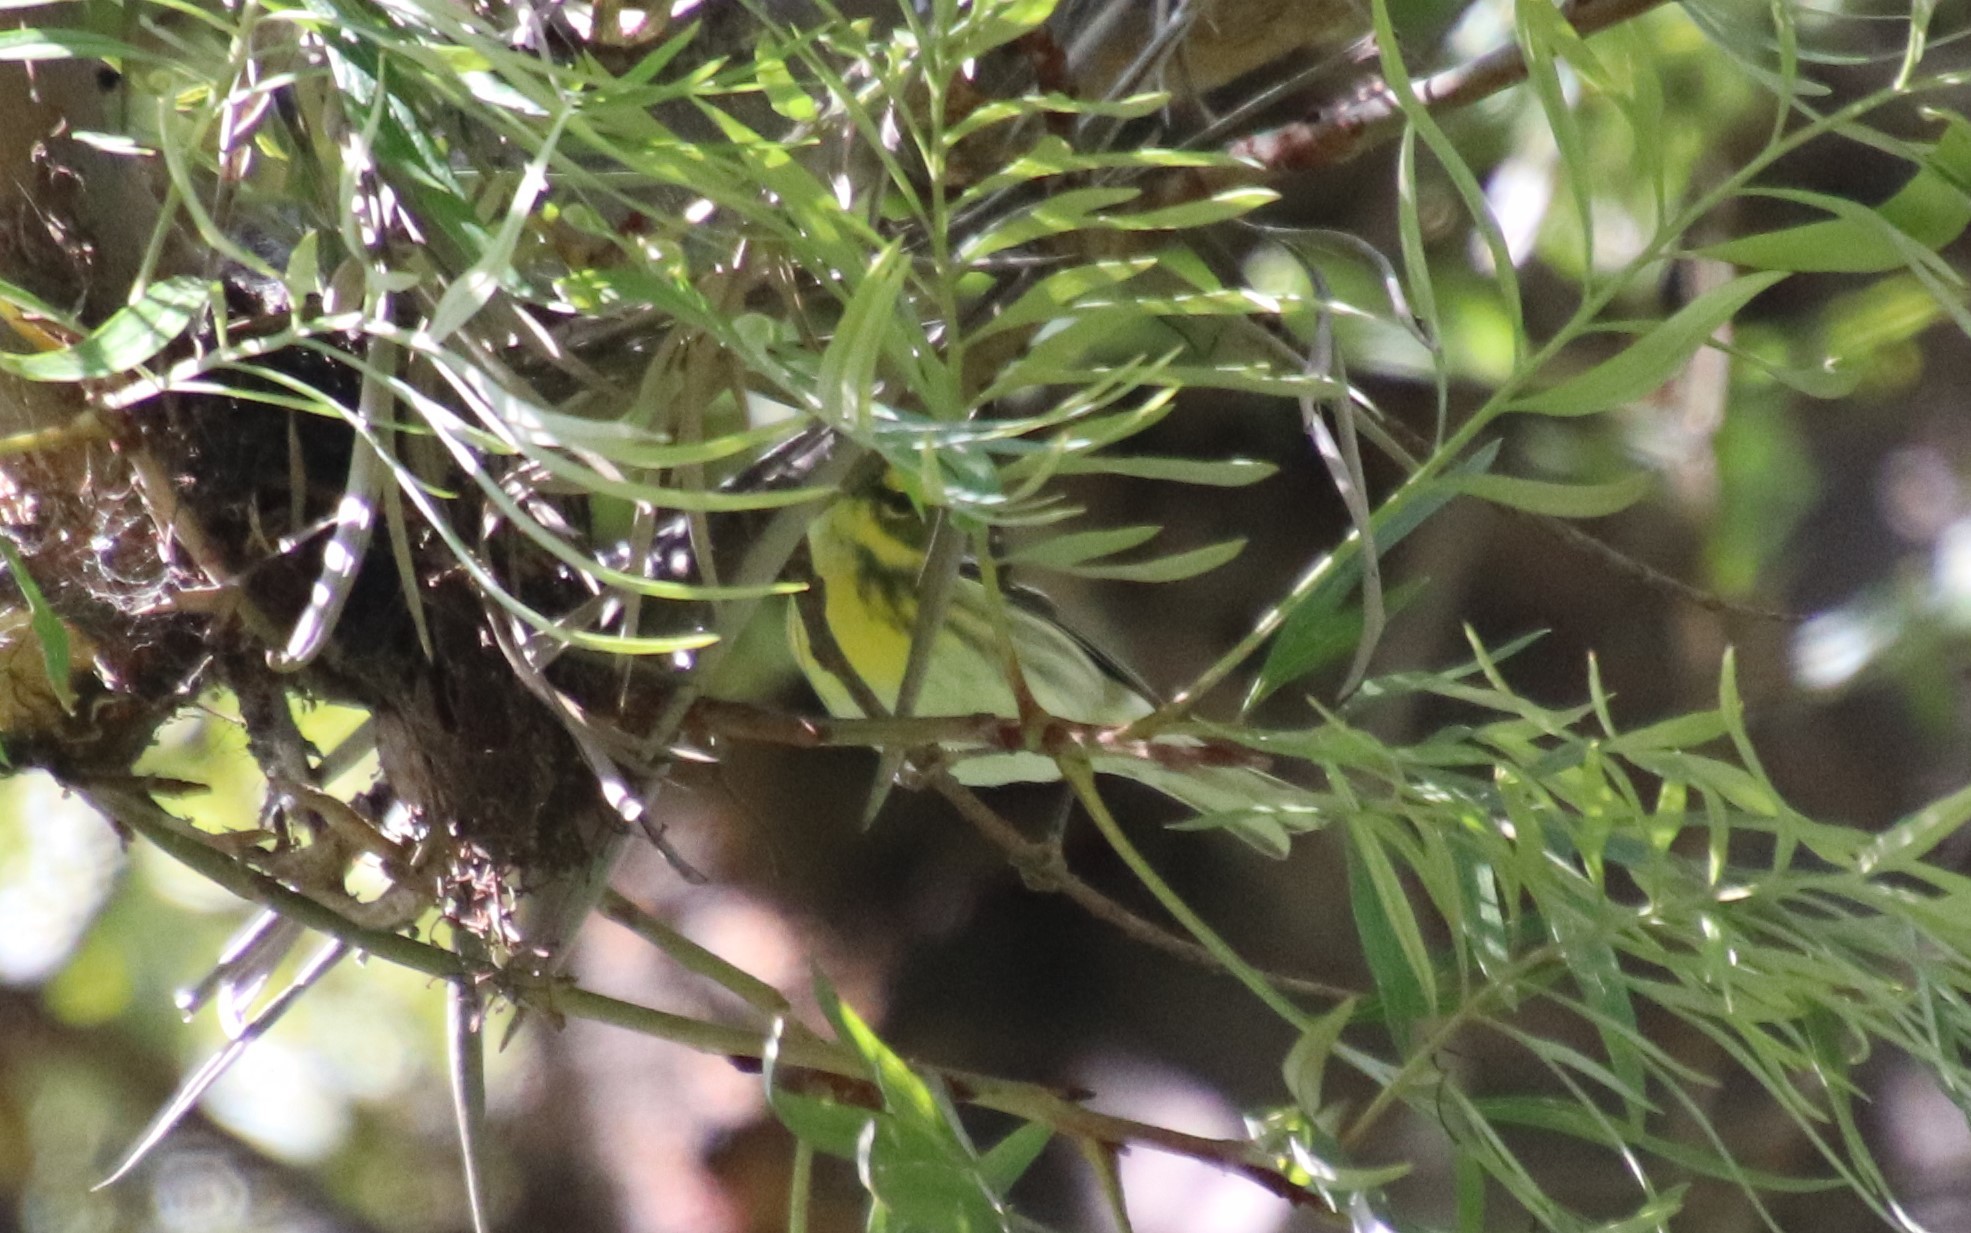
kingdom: Animalia
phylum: Chordata
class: Aves
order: Passeriformes
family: Parulidae
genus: Setophaga
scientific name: Setophaga townsendi
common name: Townsend's warbler
